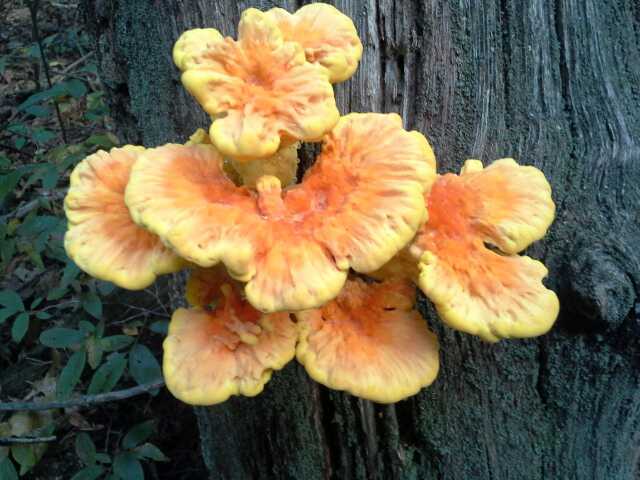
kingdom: Fungi
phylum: Basidiomycota
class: Agaricomycetes
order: Polyporales
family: Laetiporaceae
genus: Laetiporus
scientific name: Laetiporus sulphureus
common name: Chicken of the woods
